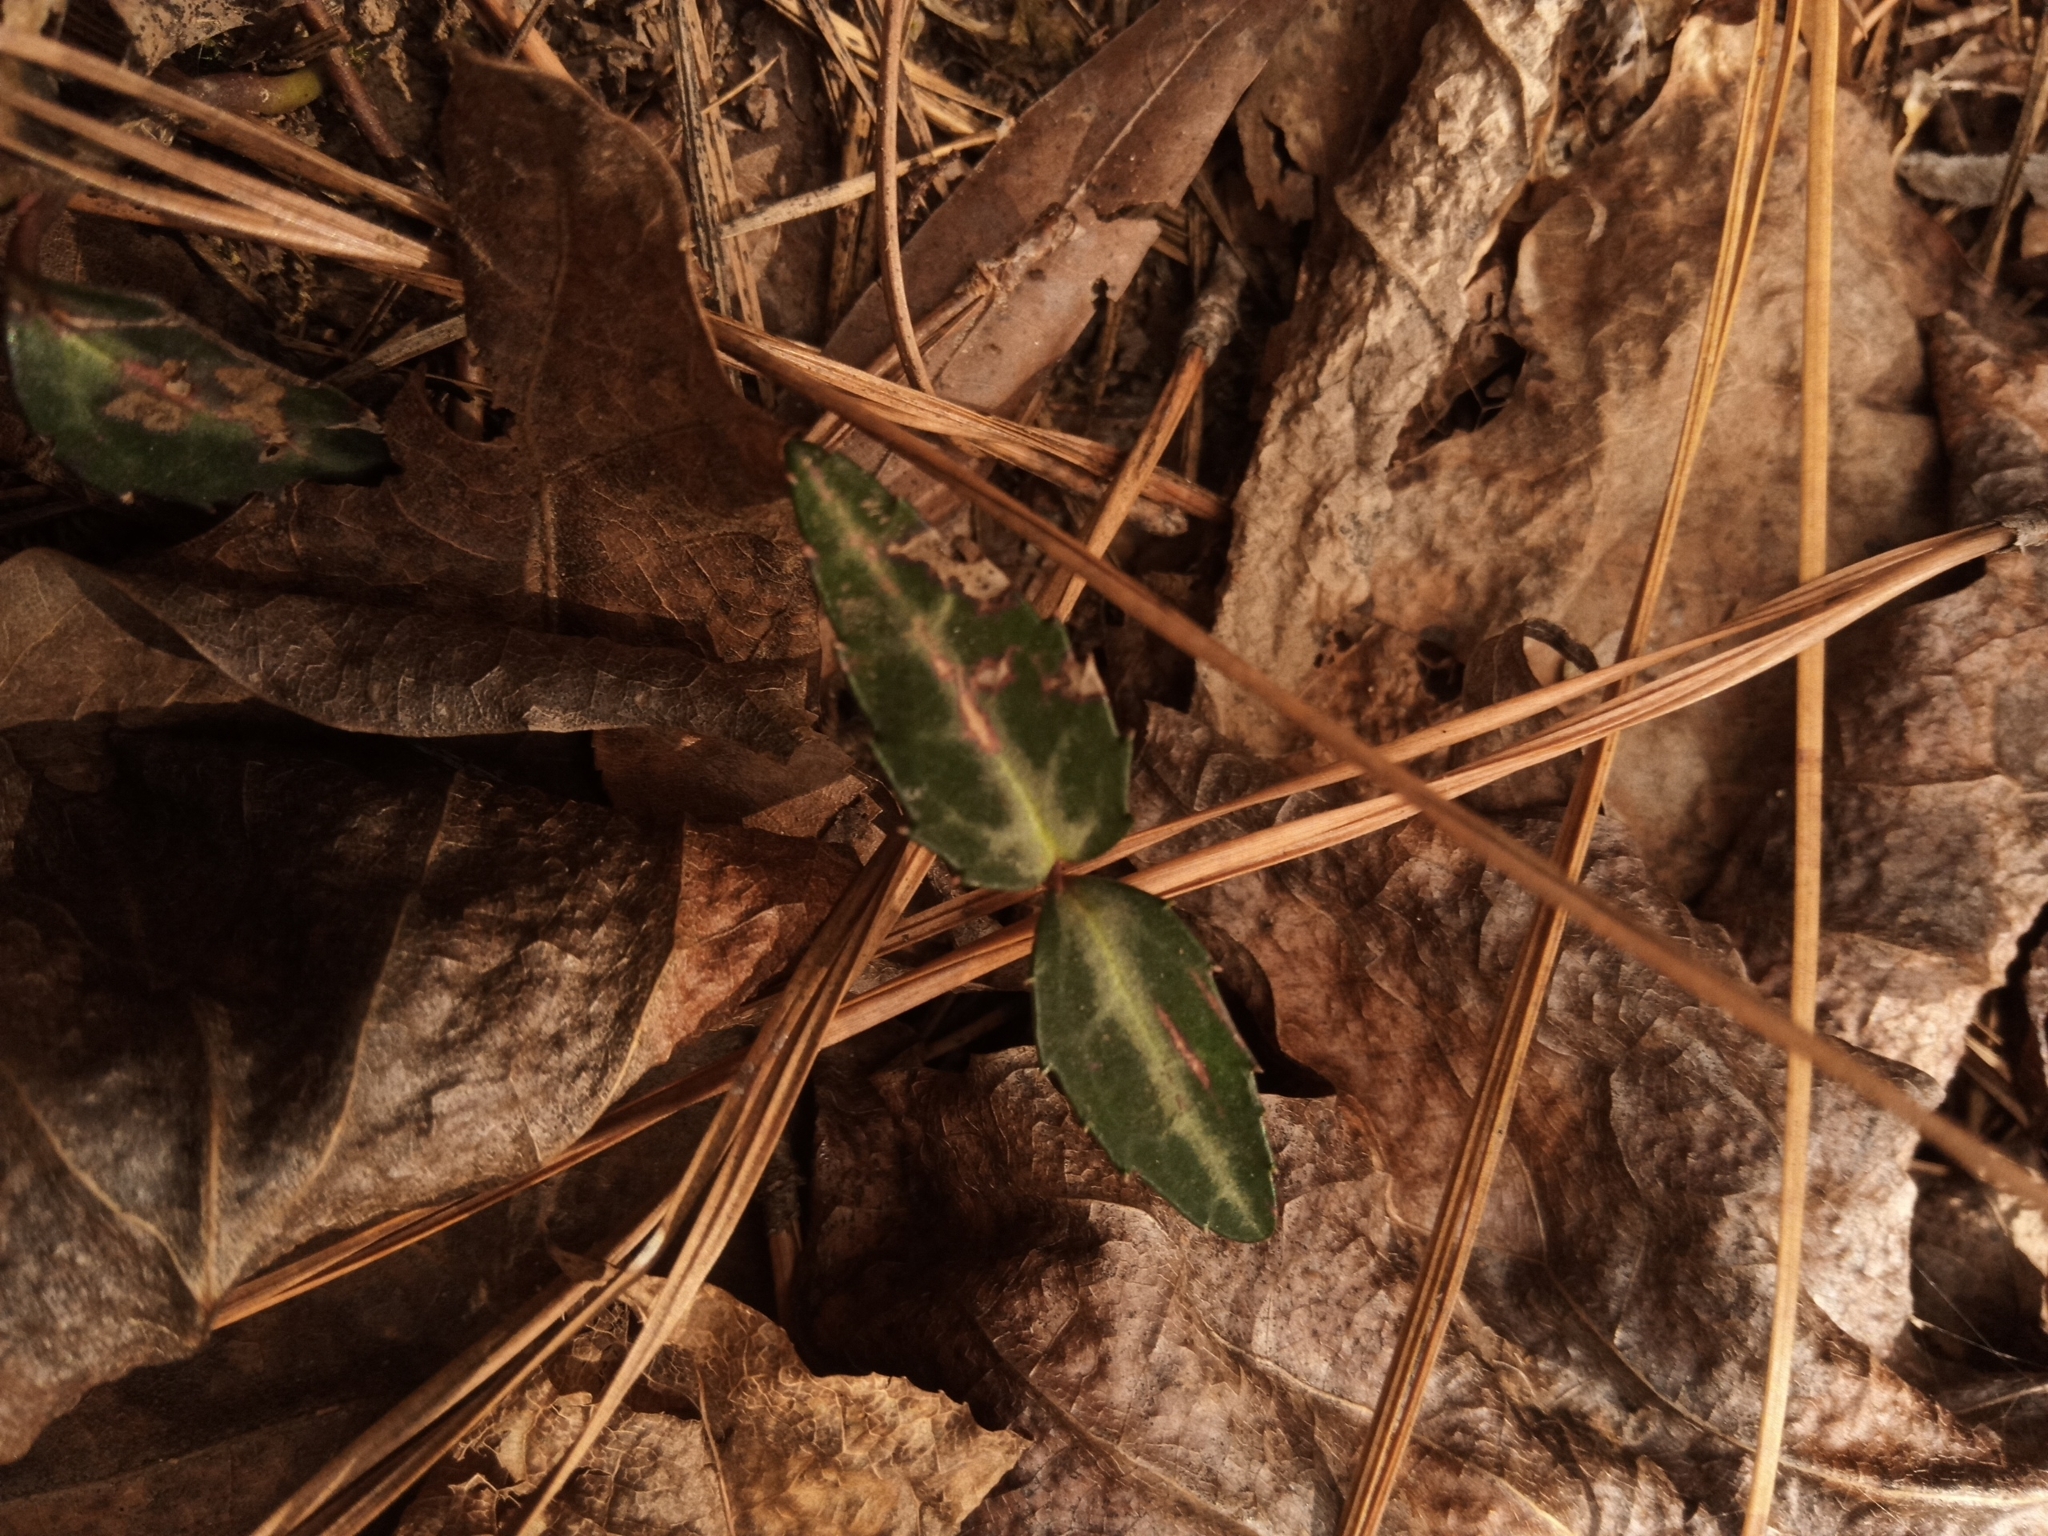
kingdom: Plantae
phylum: Tracheophyta
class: Magnoliopsida
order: Ericales
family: Ericaceae
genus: Chimaphila
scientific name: Chimaphila maculata
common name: Spotted pipsissewa
